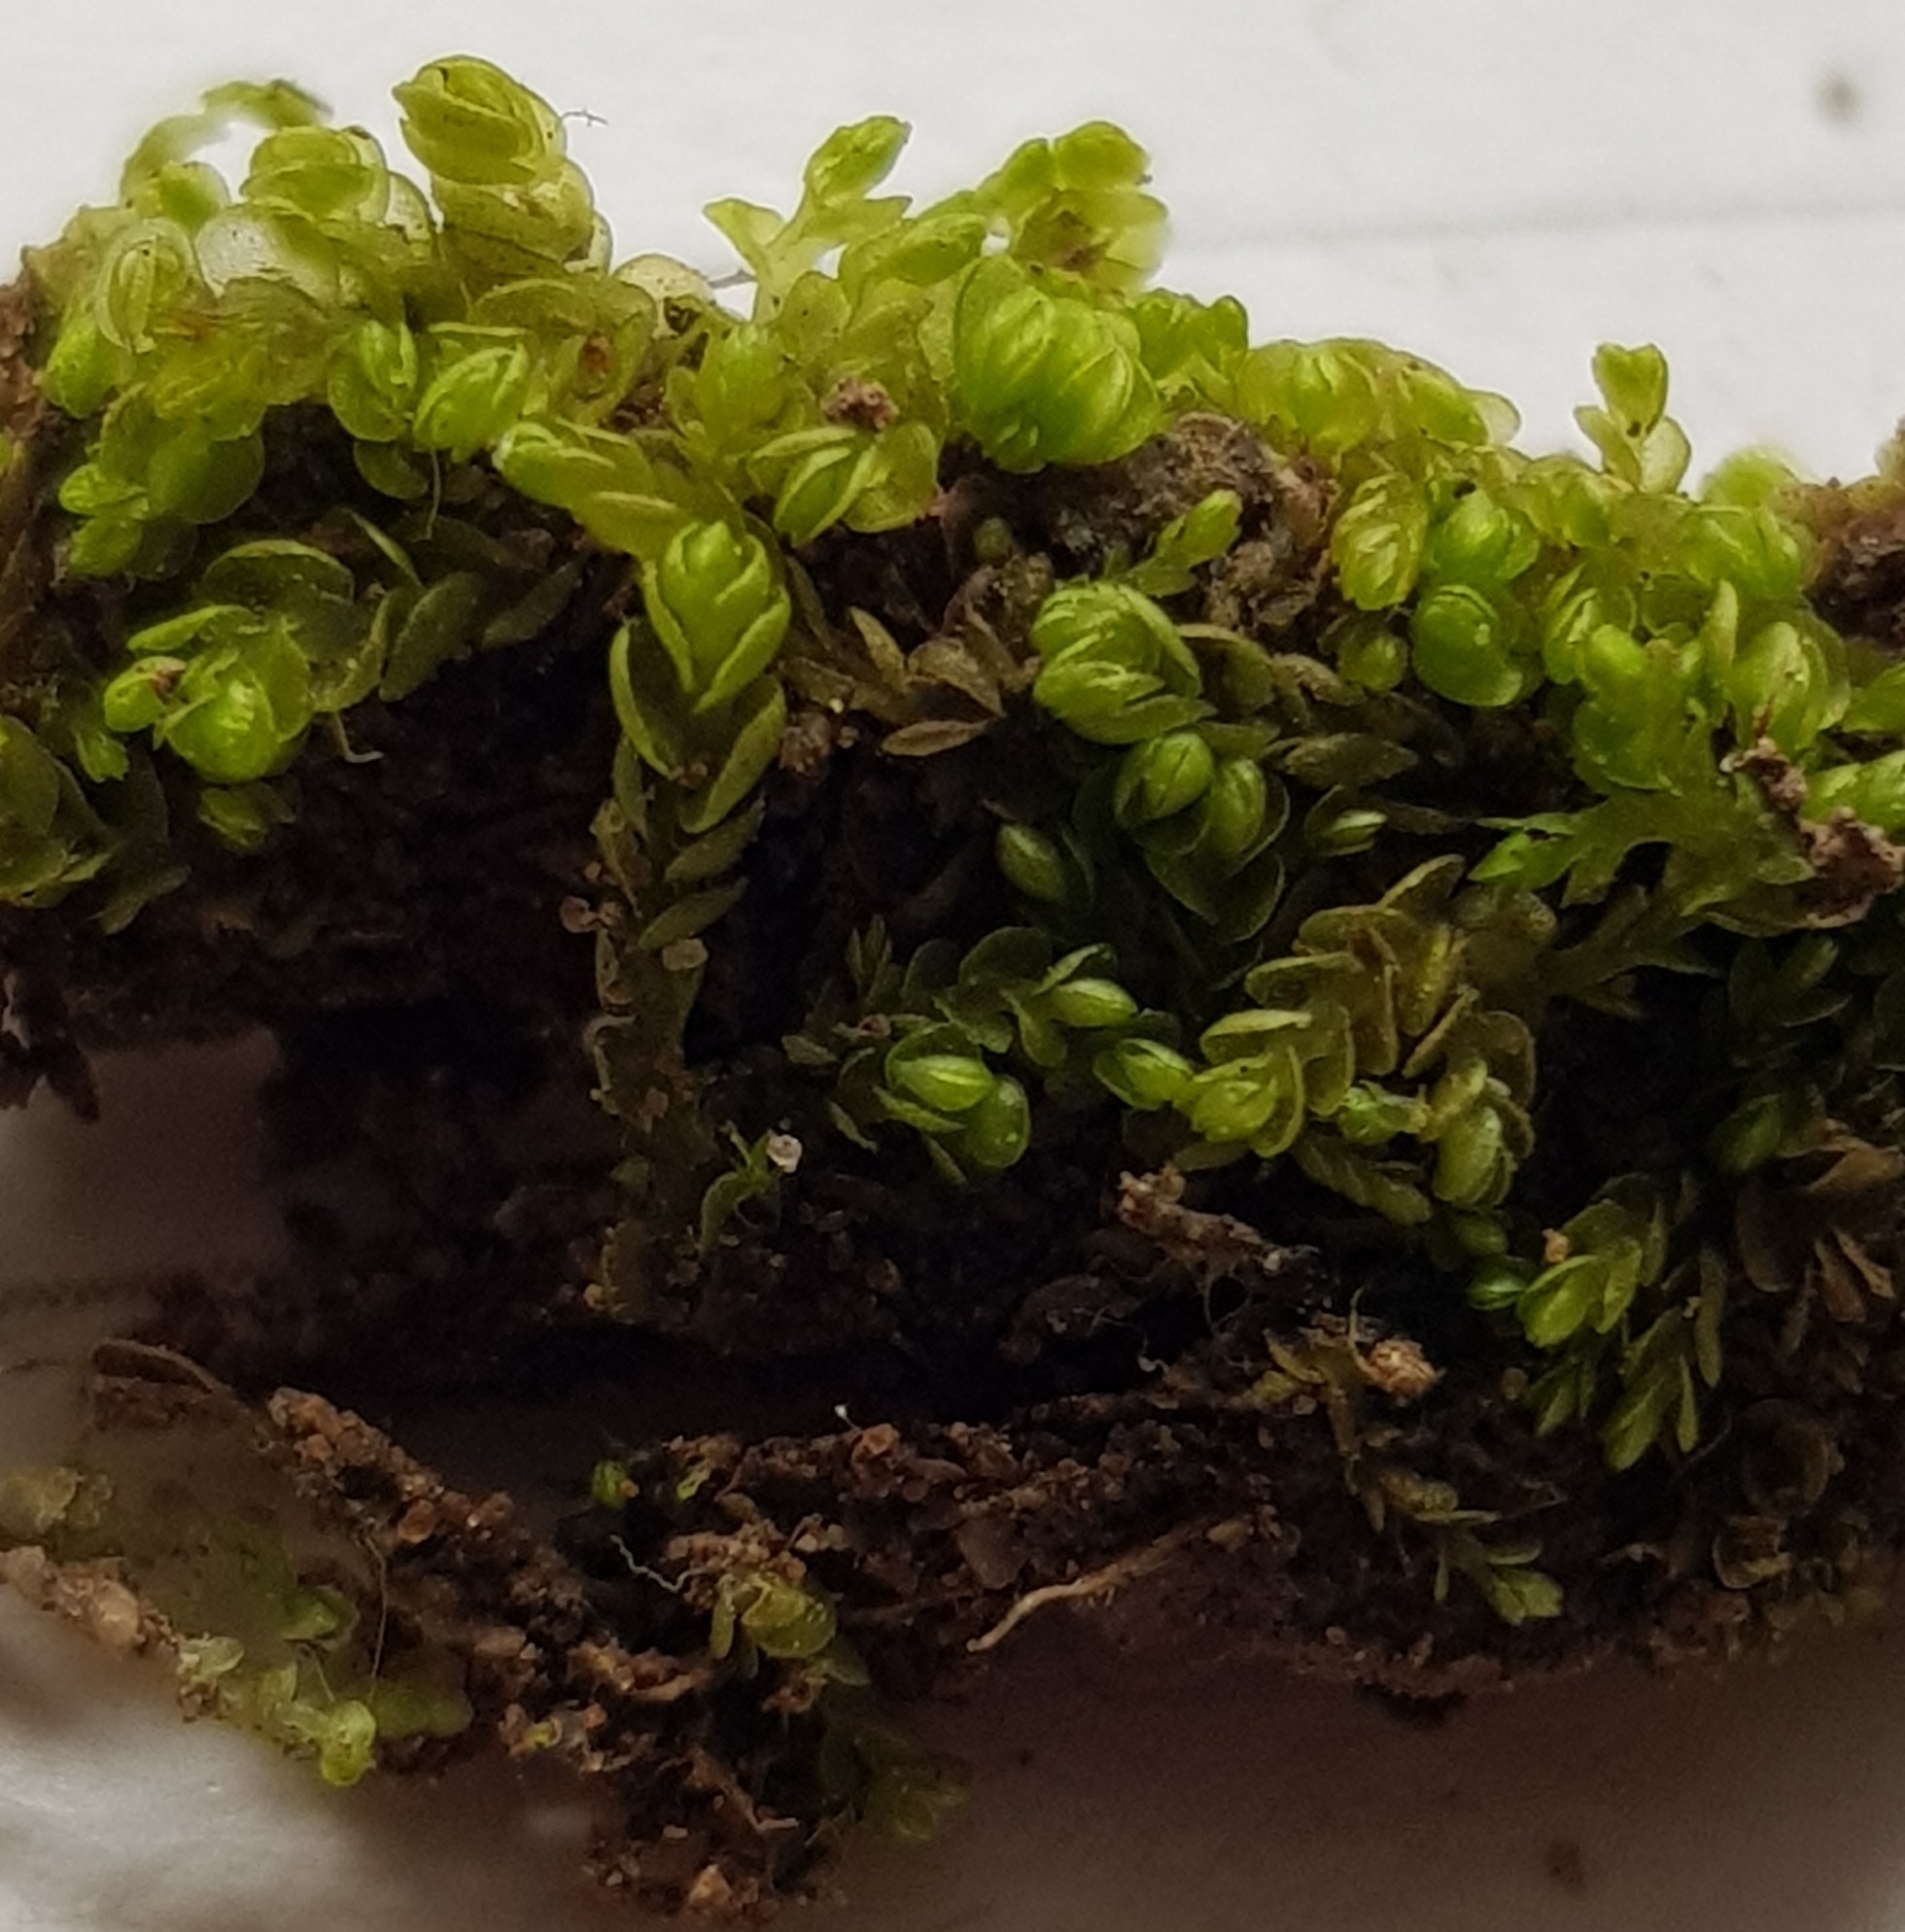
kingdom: Plantae
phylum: Marchantiophyta
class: Jungermanniopsida
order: Jungermanniales
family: Gymnomitriaceae
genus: Nardia
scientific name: Nardia scalaris
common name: Ladder flapwort
